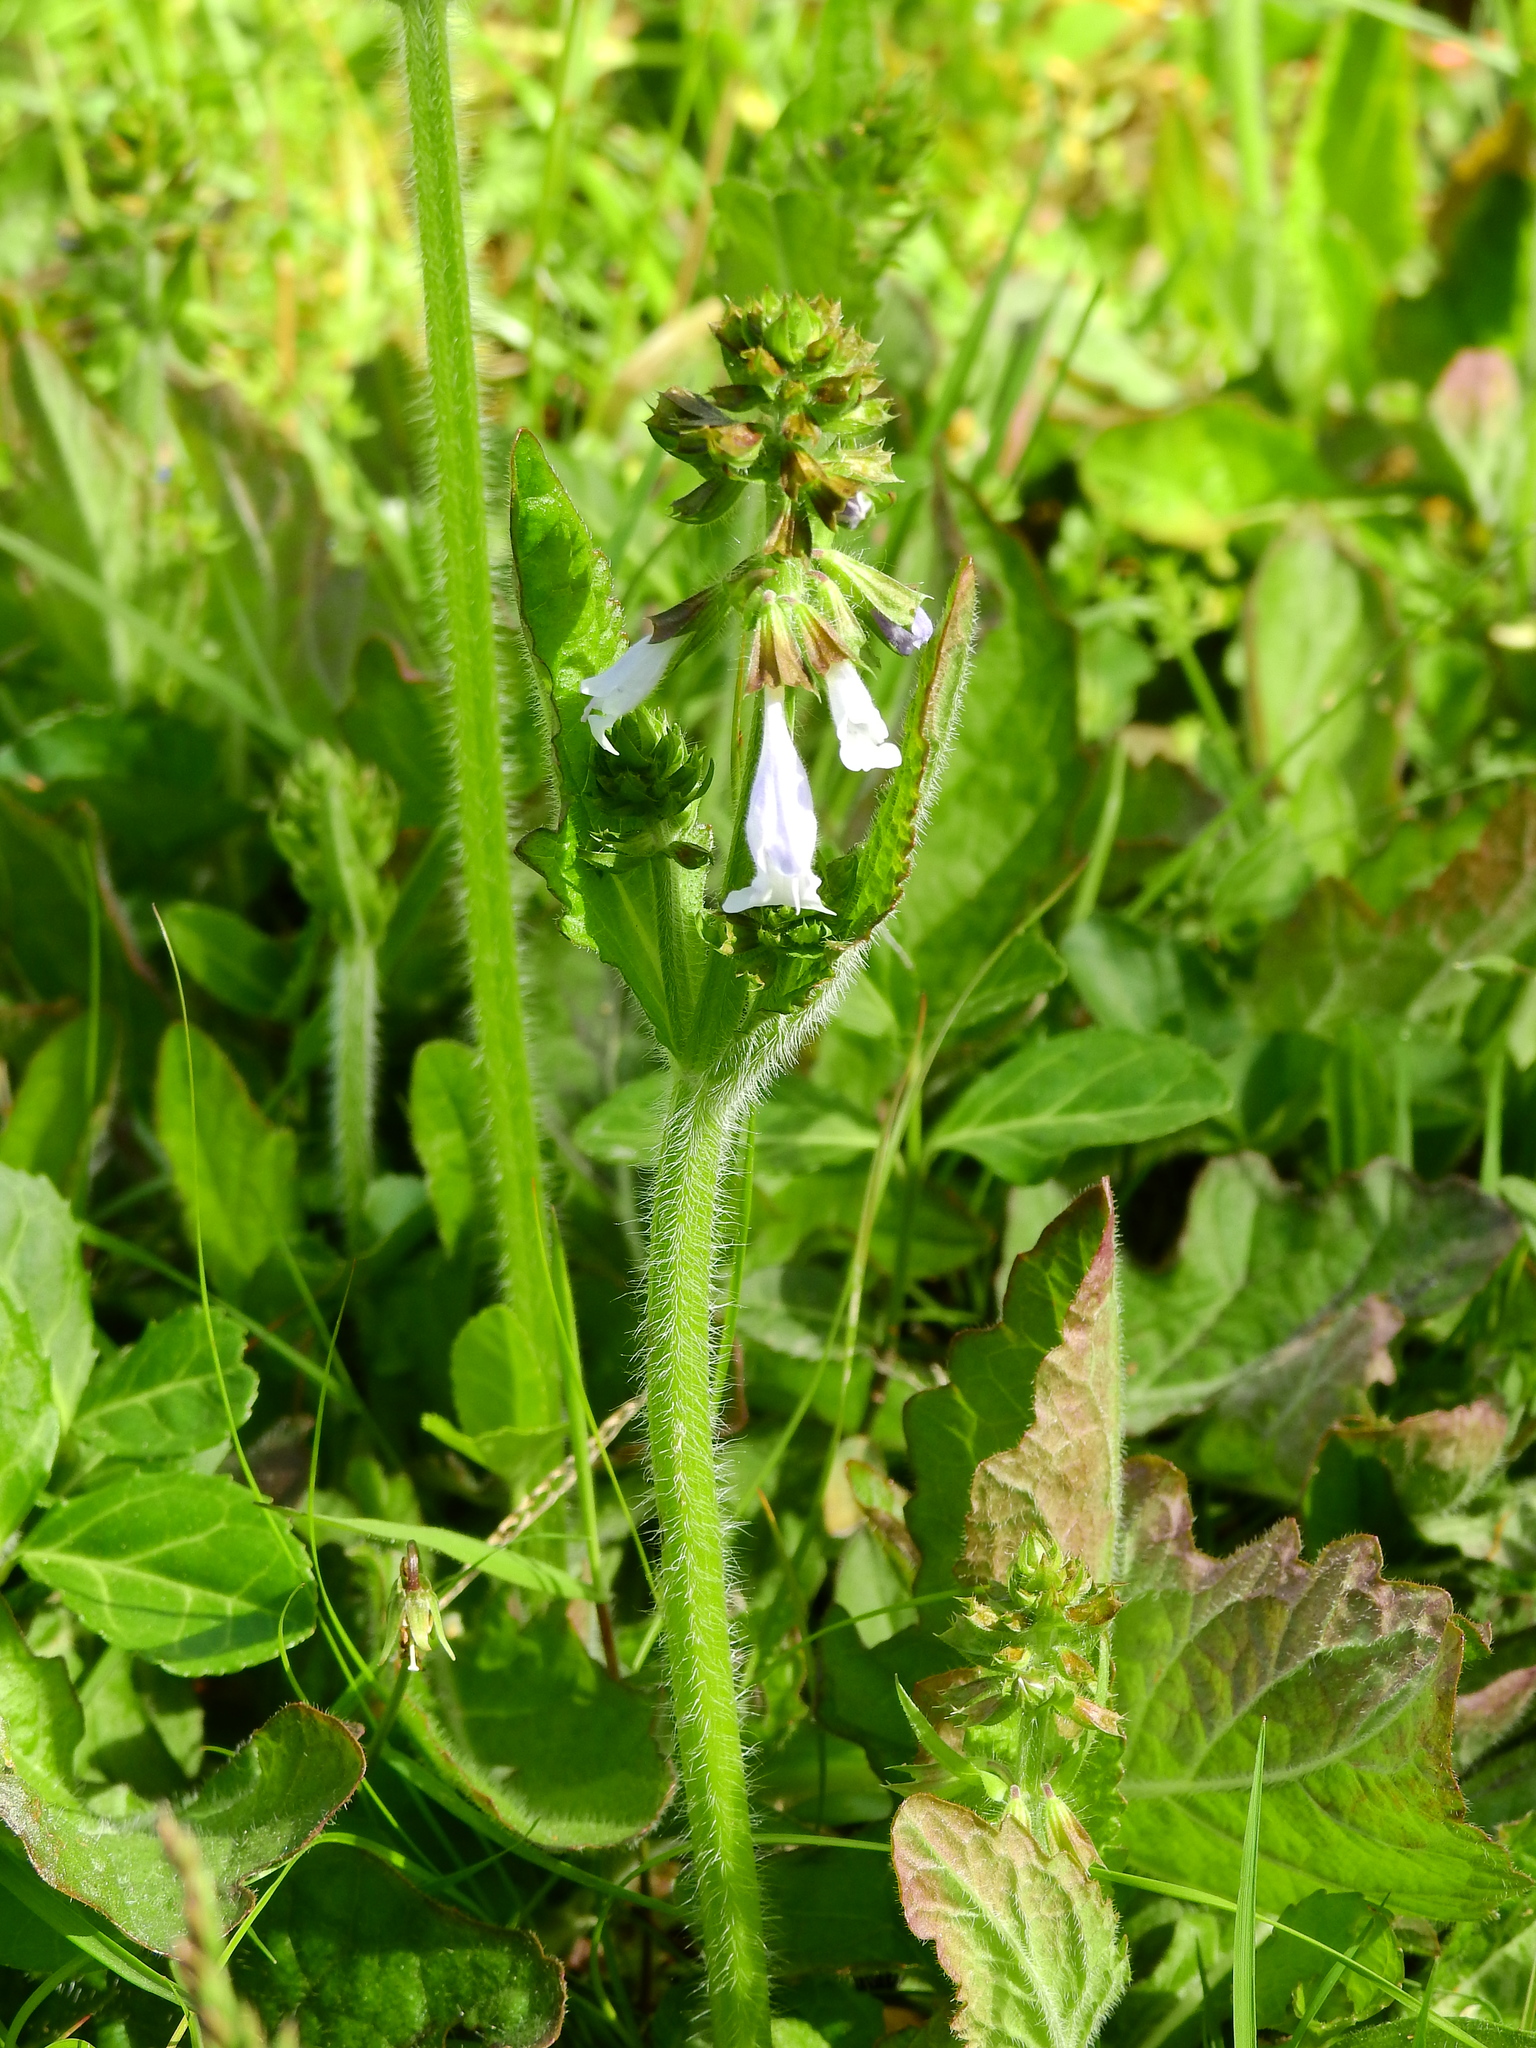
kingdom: Plantae
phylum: Tracheophyta
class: Magnoliopsida
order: Lamiales
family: Lamiaceae
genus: Salvia
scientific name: Salvia lyrata
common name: Cancerweed
